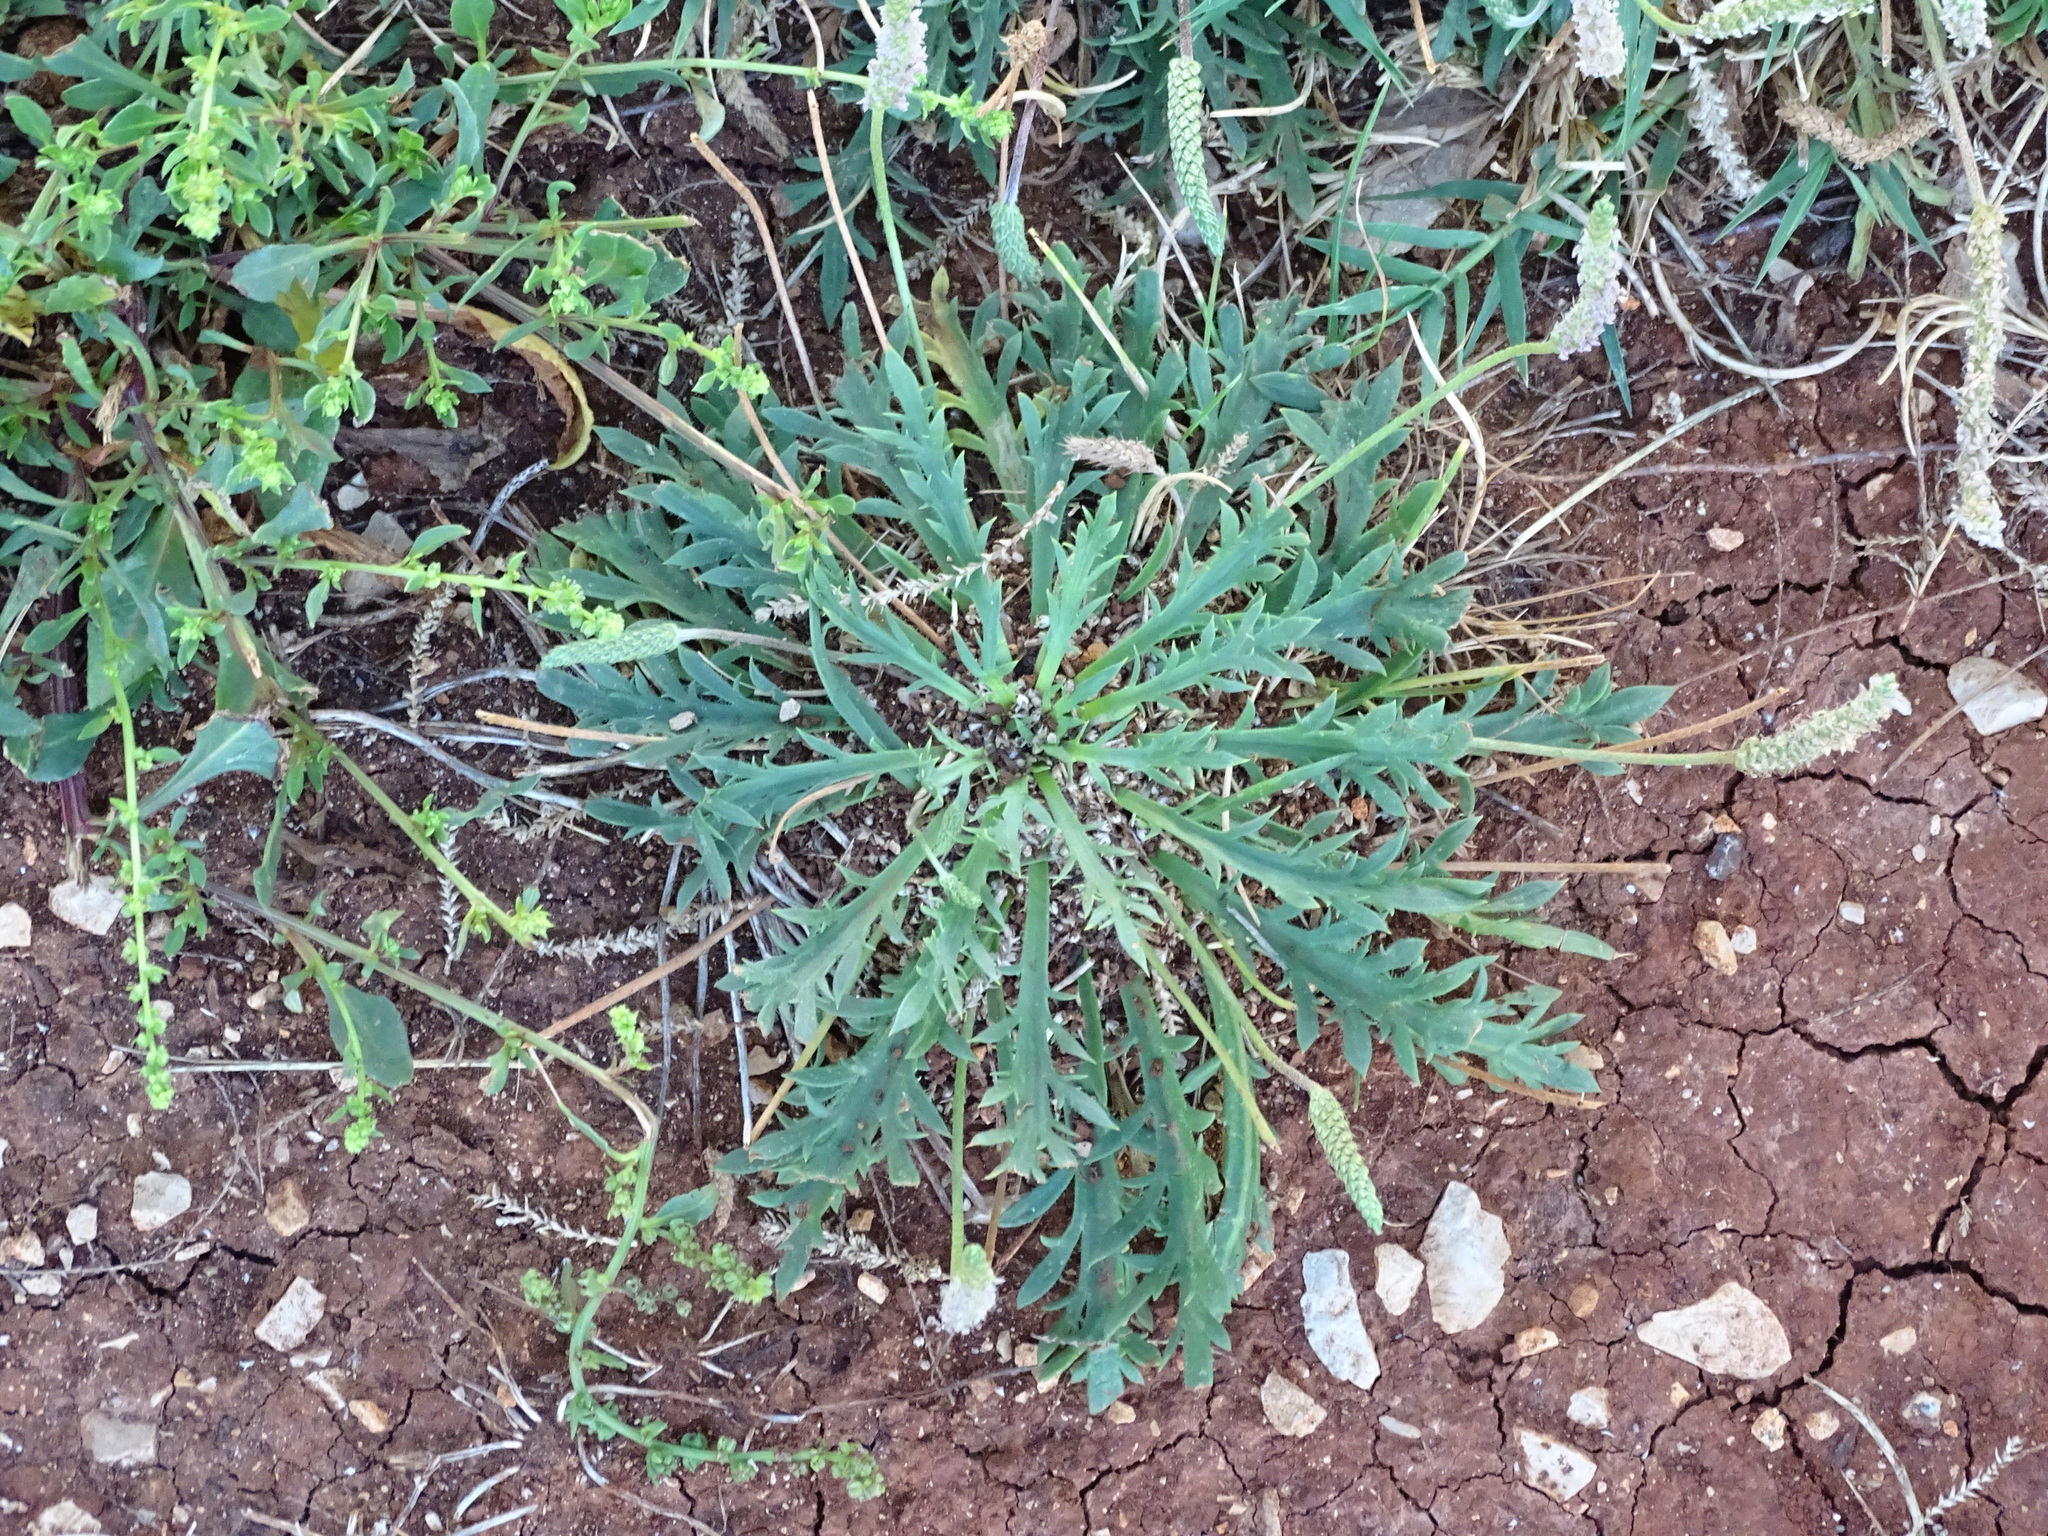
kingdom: Plantae
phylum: Tracheophyta
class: Magnoliopsida
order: Lamiales
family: Plantaginaceae
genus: Plantago
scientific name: Plantago coronopus
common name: Buck's-horn plantain
